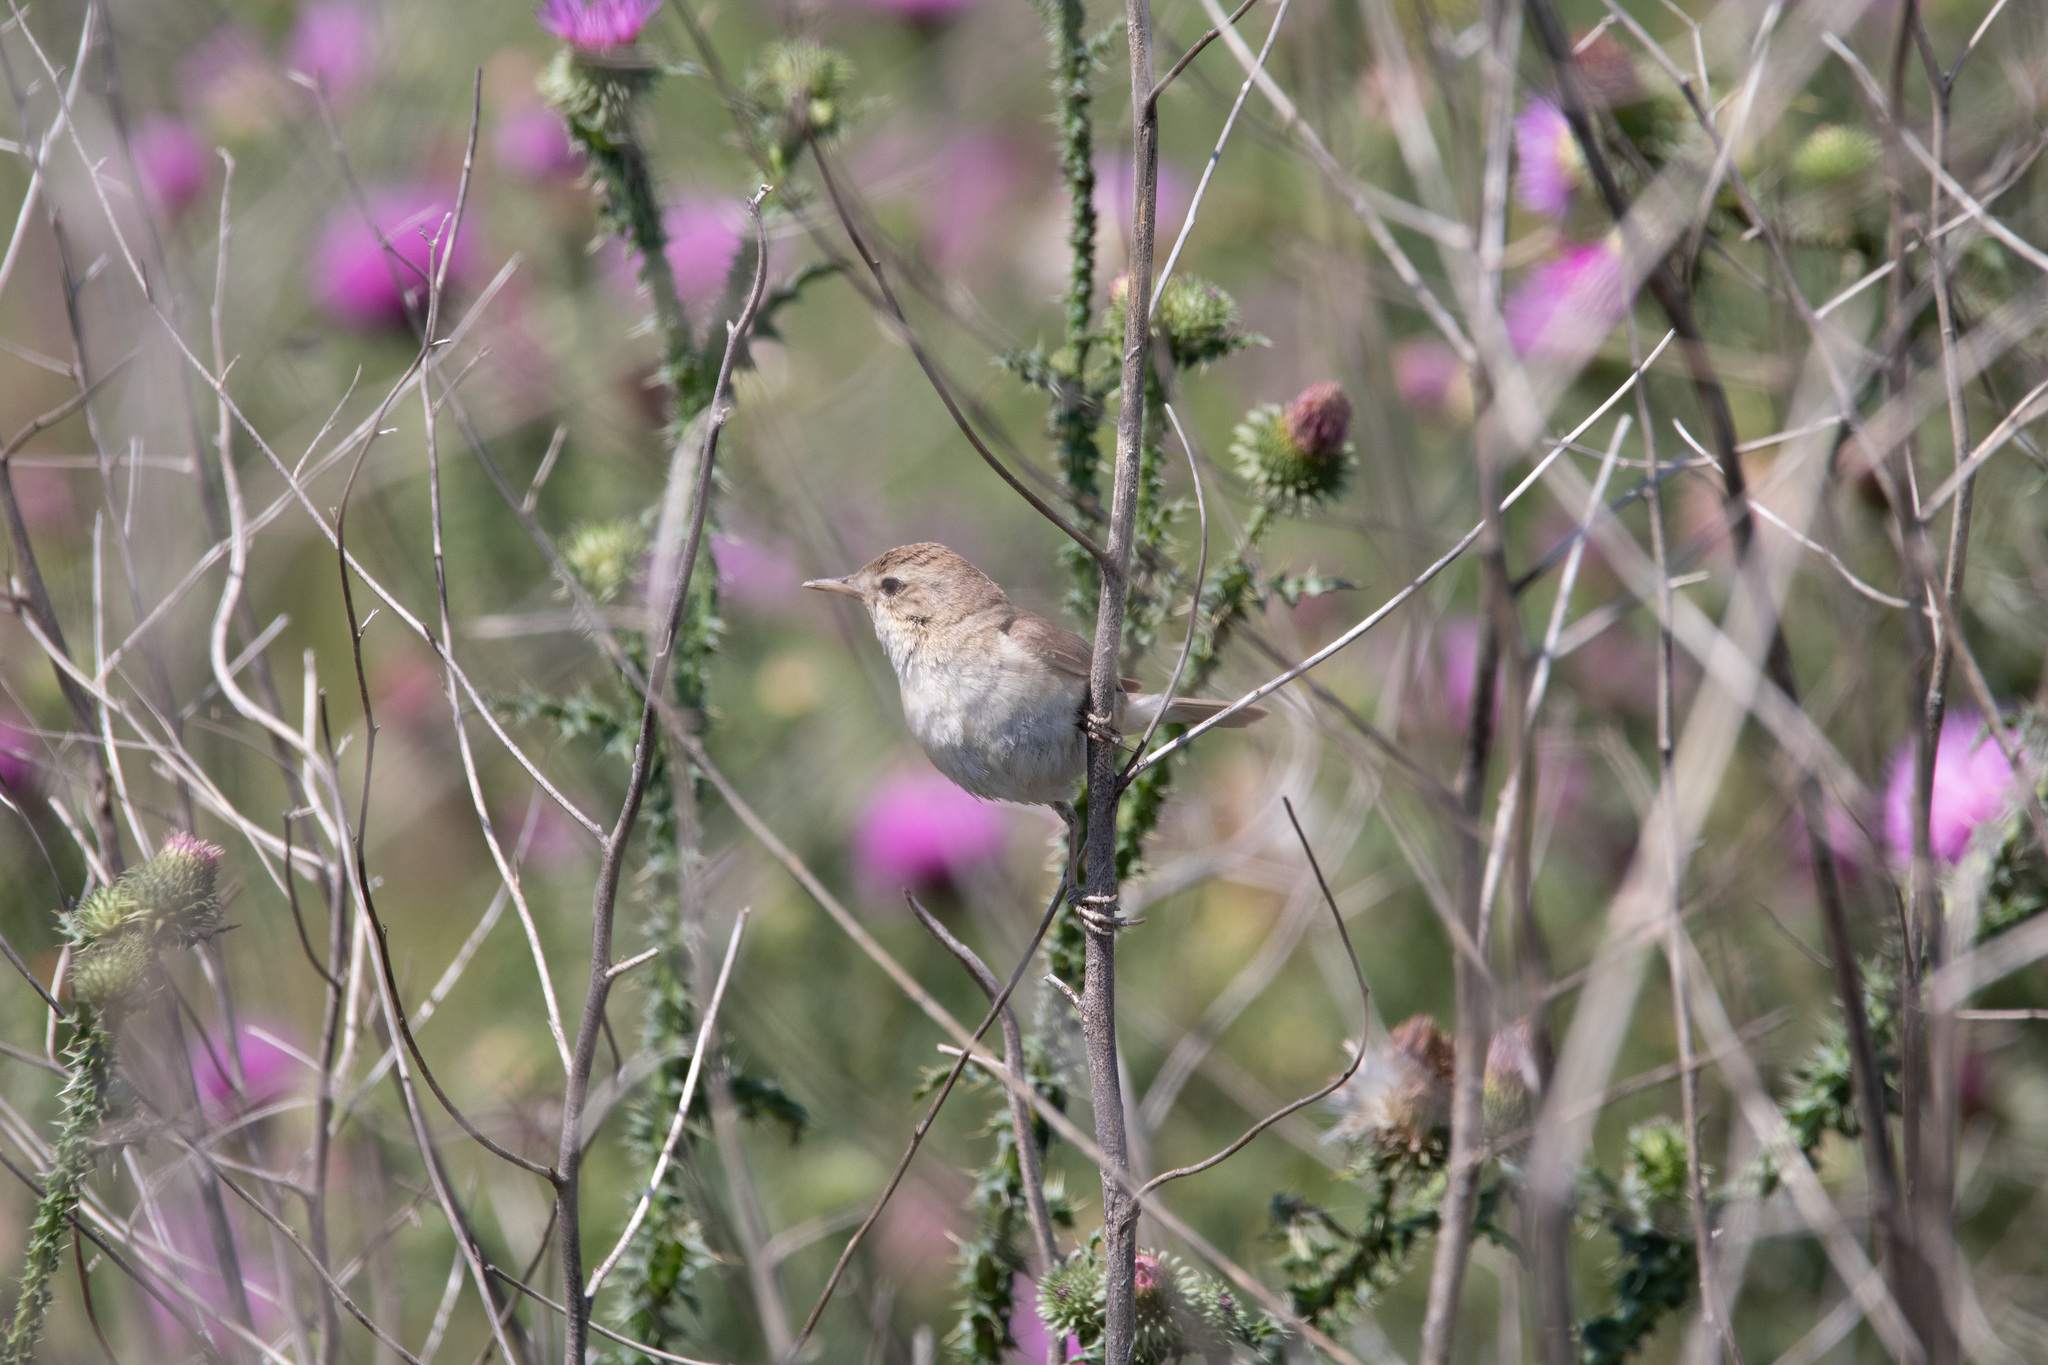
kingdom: Animalia
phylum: Chordata
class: Aves
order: Passeriformes
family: Acrocephalidae
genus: Iduna
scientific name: Iduna caligata
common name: Booted warbler
